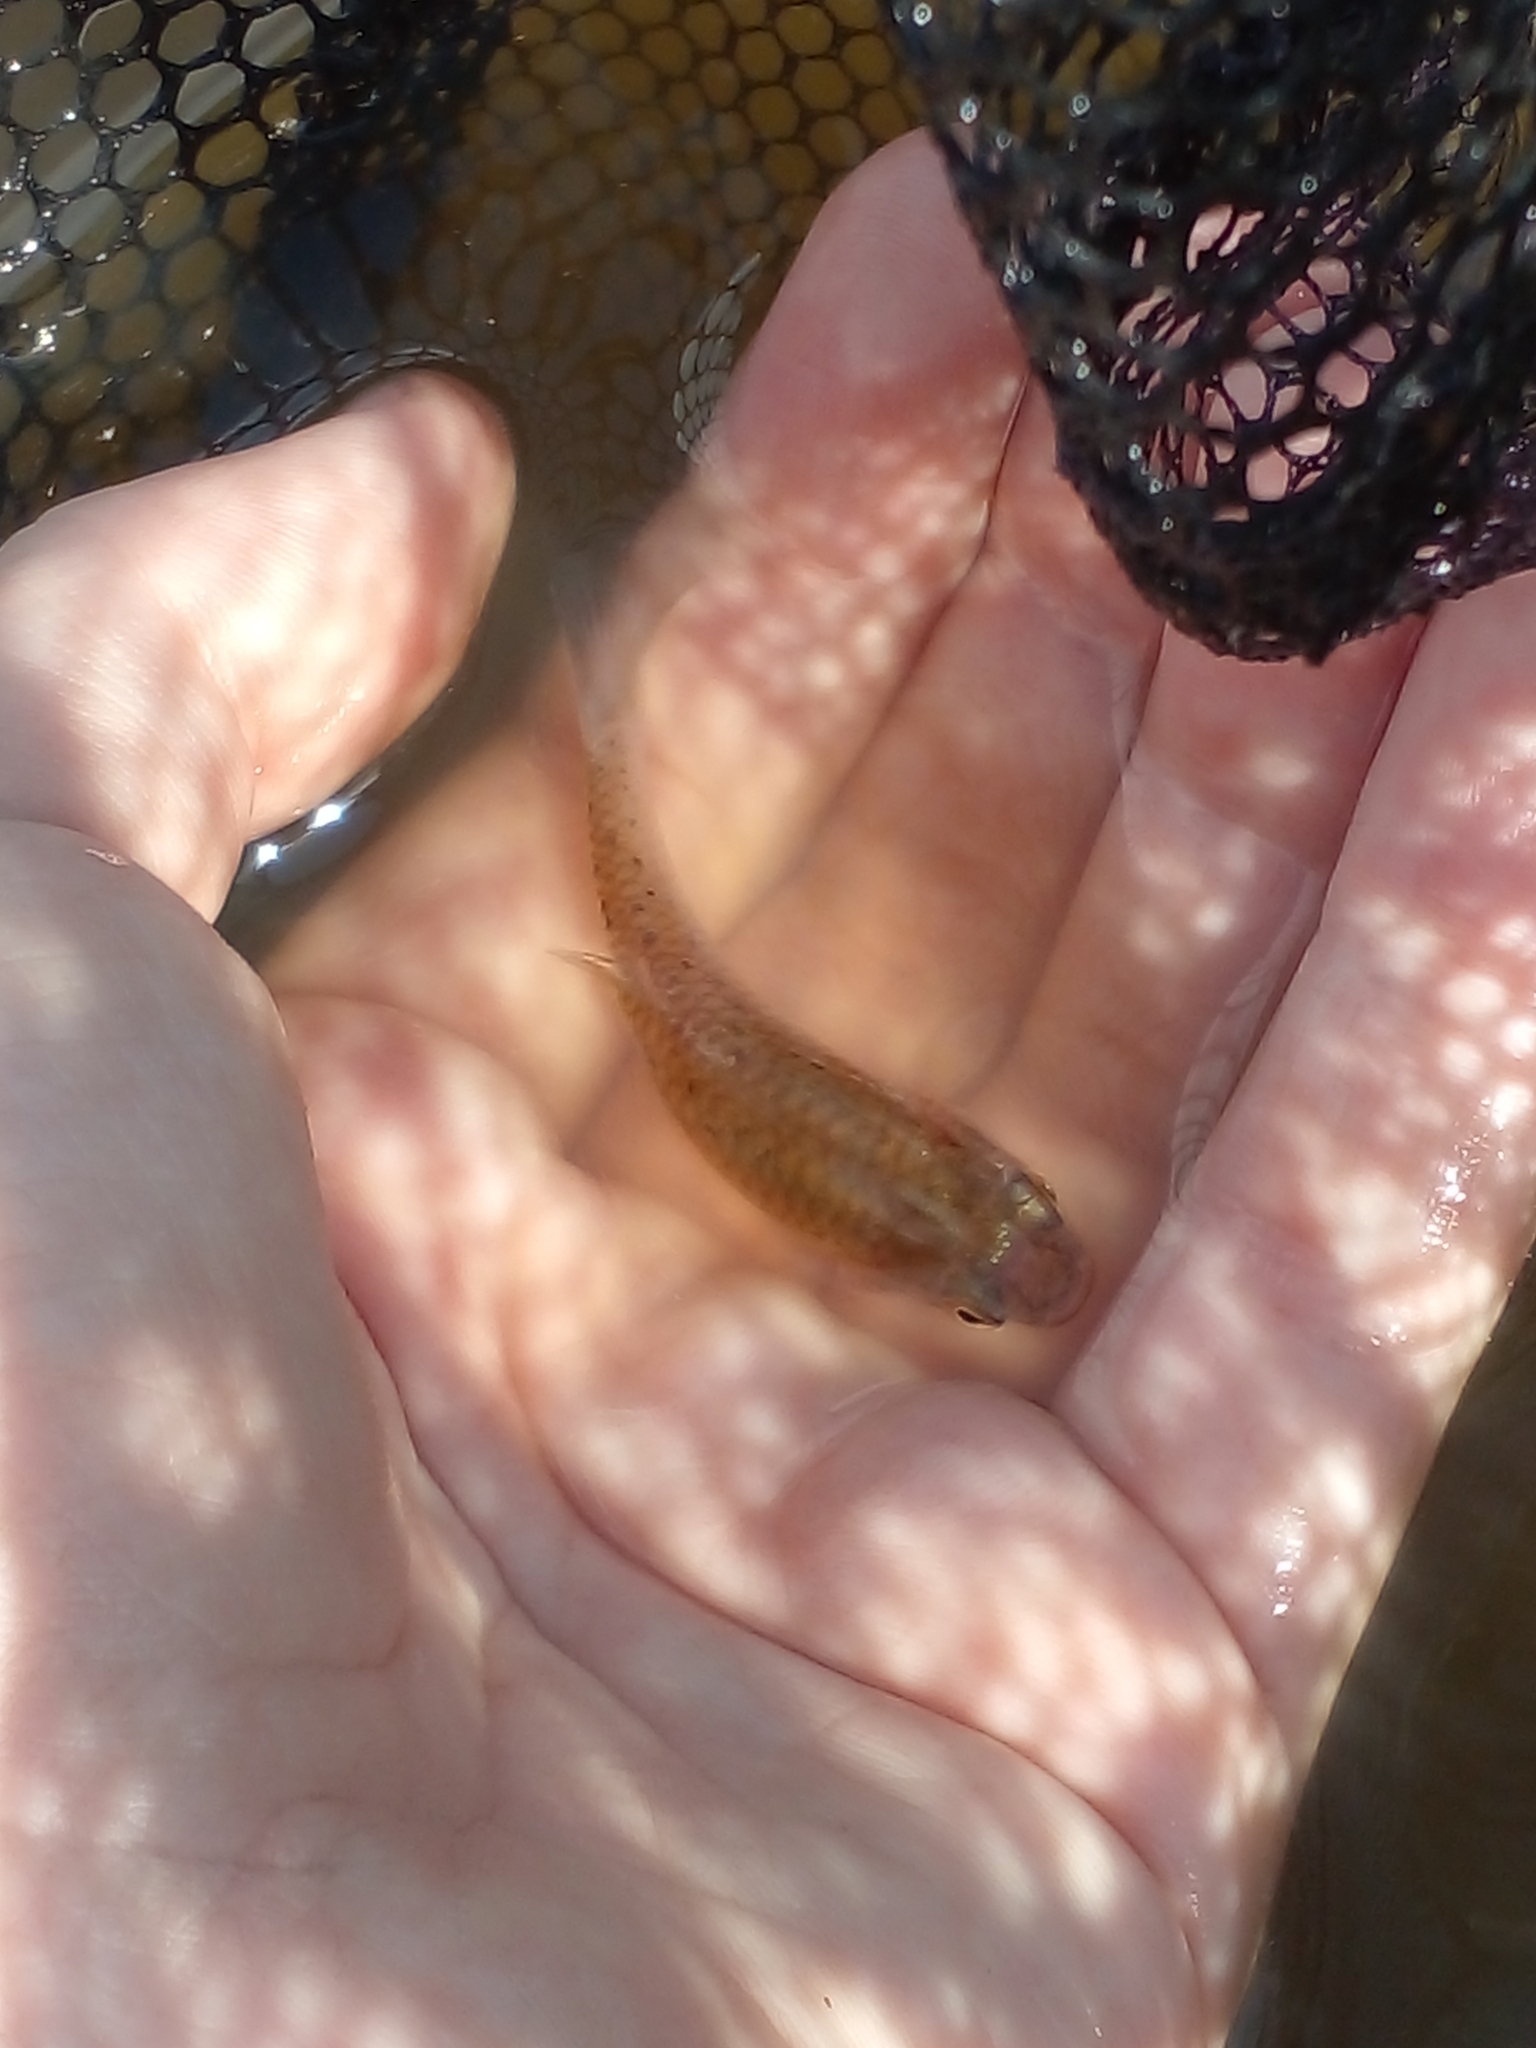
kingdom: Animalia
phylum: Chordata
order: Cyprinodontiformes
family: Anablepidae
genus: Jenynsia
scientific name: Jenynsia lineata
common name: Onesided livebearer
